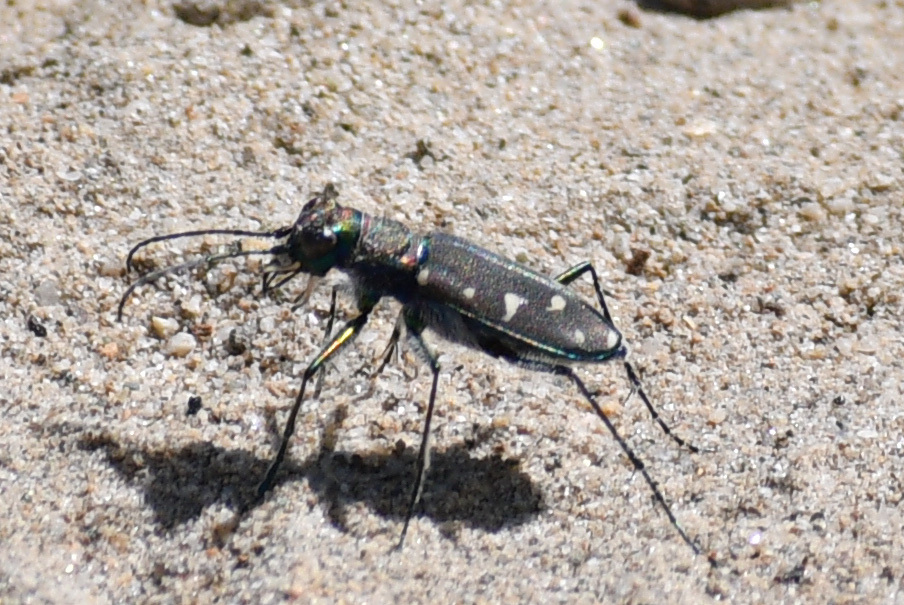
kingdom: Animalia
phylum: Arthropoda
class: Insecta
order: Coleoptera
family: Carabidae
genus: Cicindela
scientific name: Cicindela oregona
